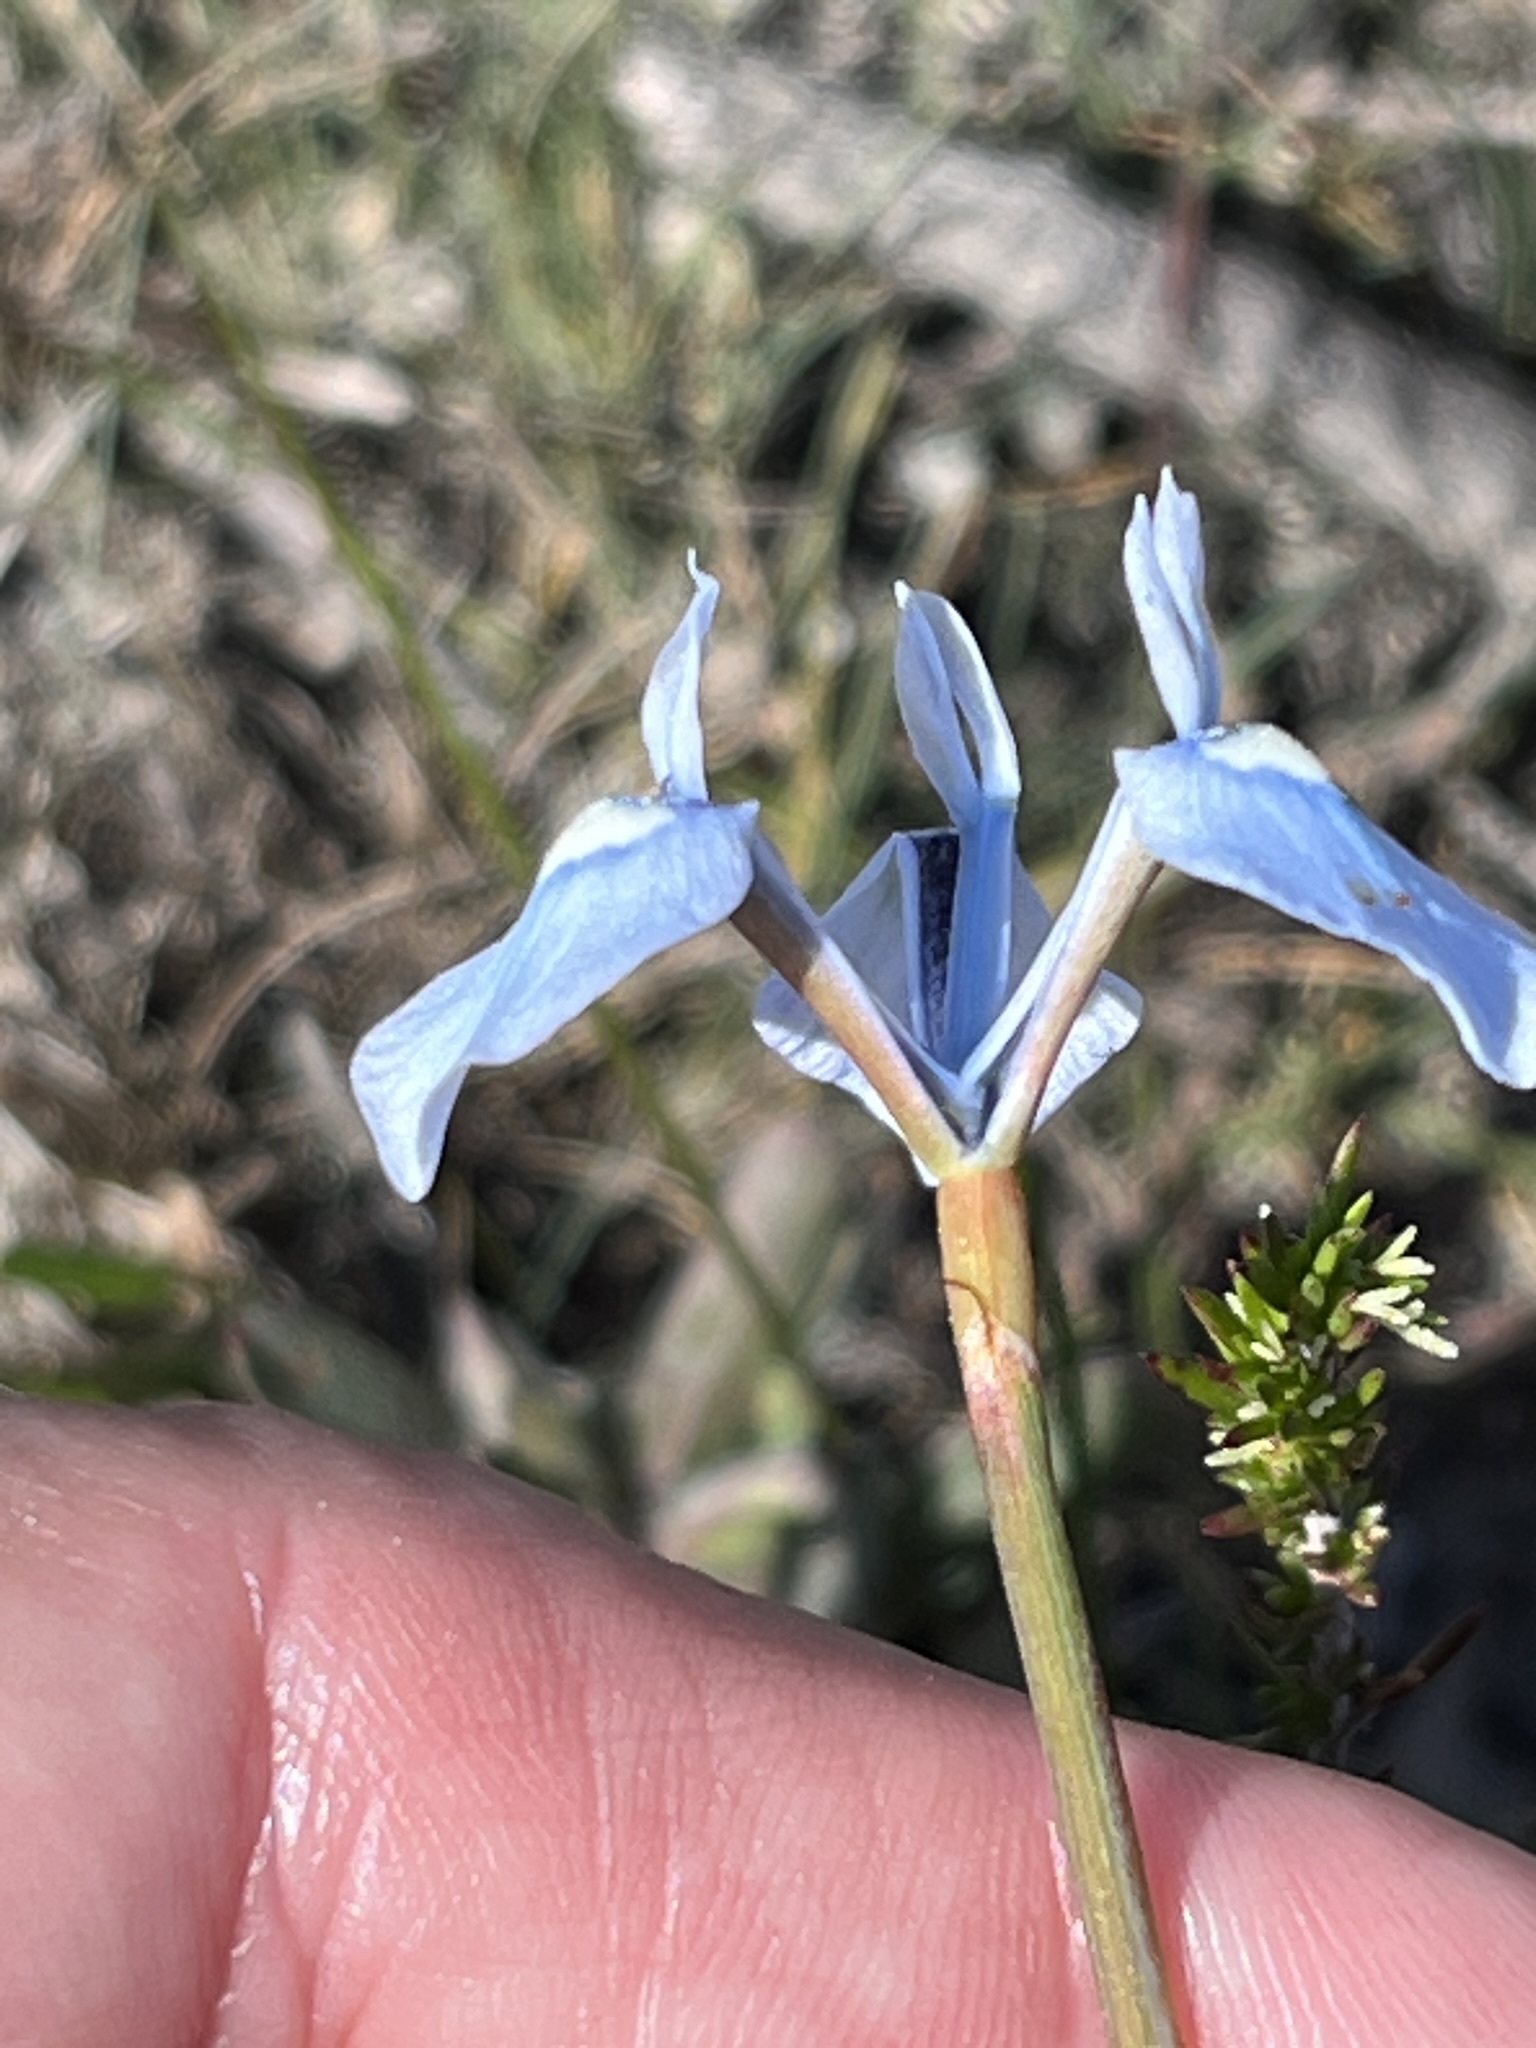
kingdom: Plantae
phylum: Tracheophyta
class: Liliopsida
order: Asparagales
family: Iridaceae
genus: Moraea
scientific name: Moraea tripetala
